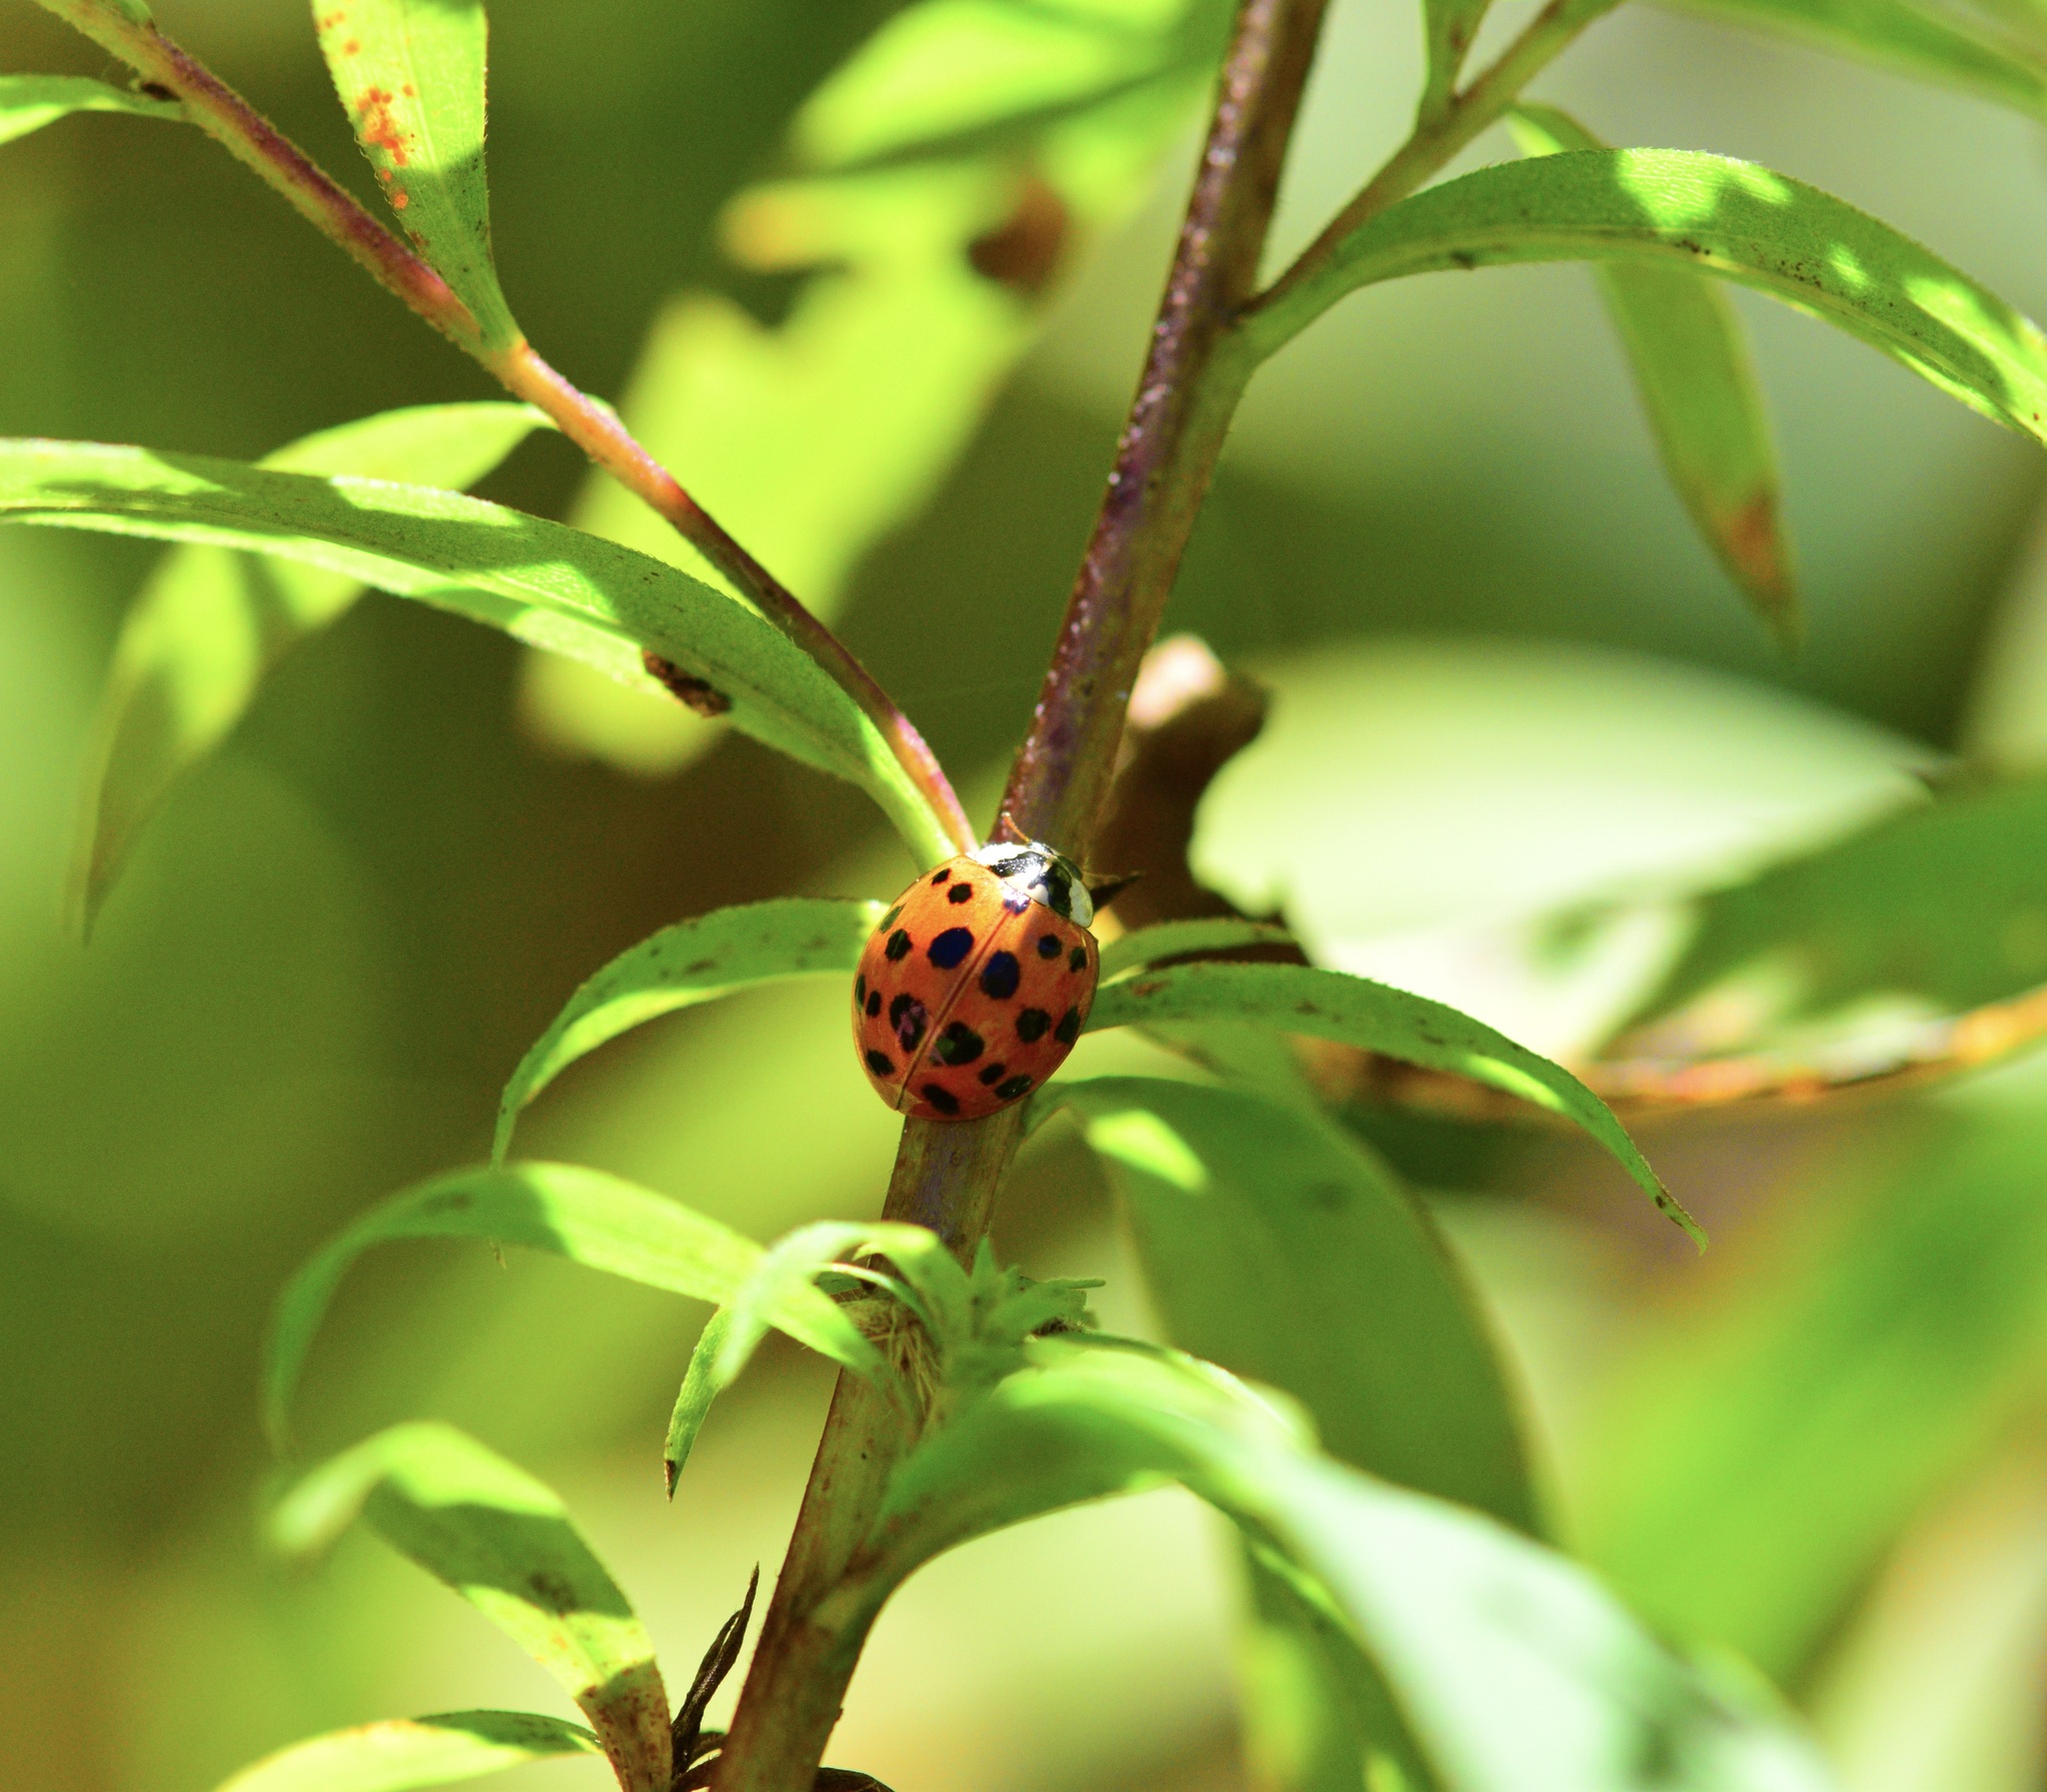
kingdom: Animalia
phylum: Arthropoda
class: Insecta
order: Coleoptera
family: Coccinellidae
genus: Harmonia
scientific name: Harmonia axyridis
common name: Harlequin ladybird
